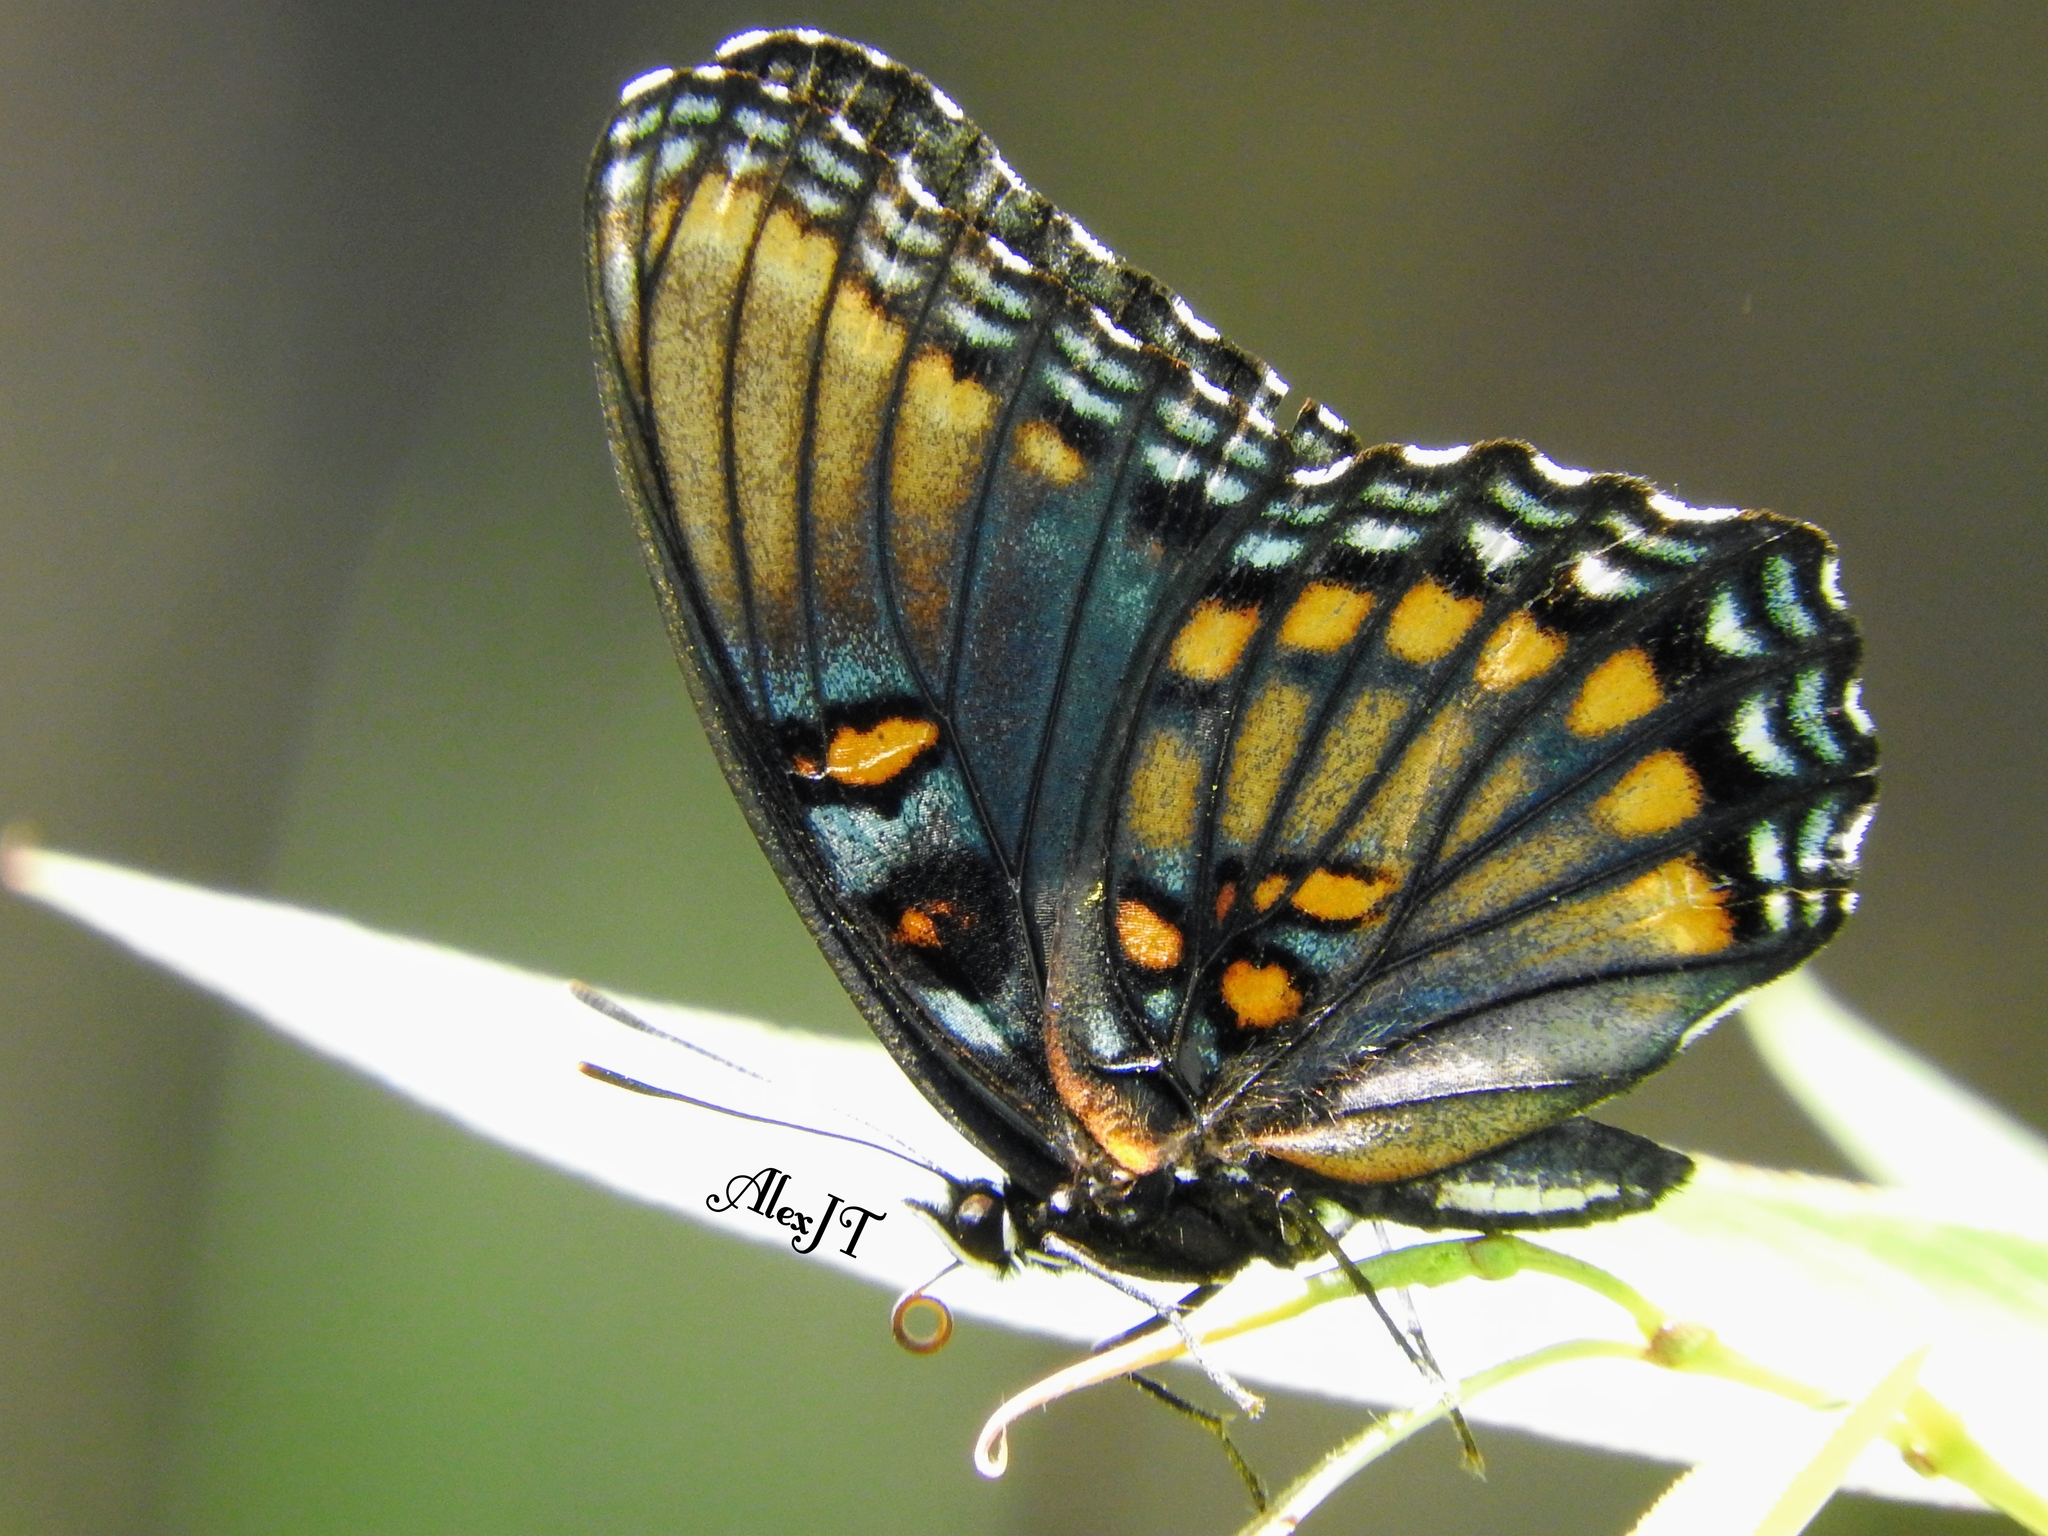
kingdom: Animalia
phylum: Arthropoda
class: Insecta
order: Lepidoptera
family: Nymphalidae
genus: Limenitis
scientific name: Limenitis arthemis
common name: Red-spotted admiral
